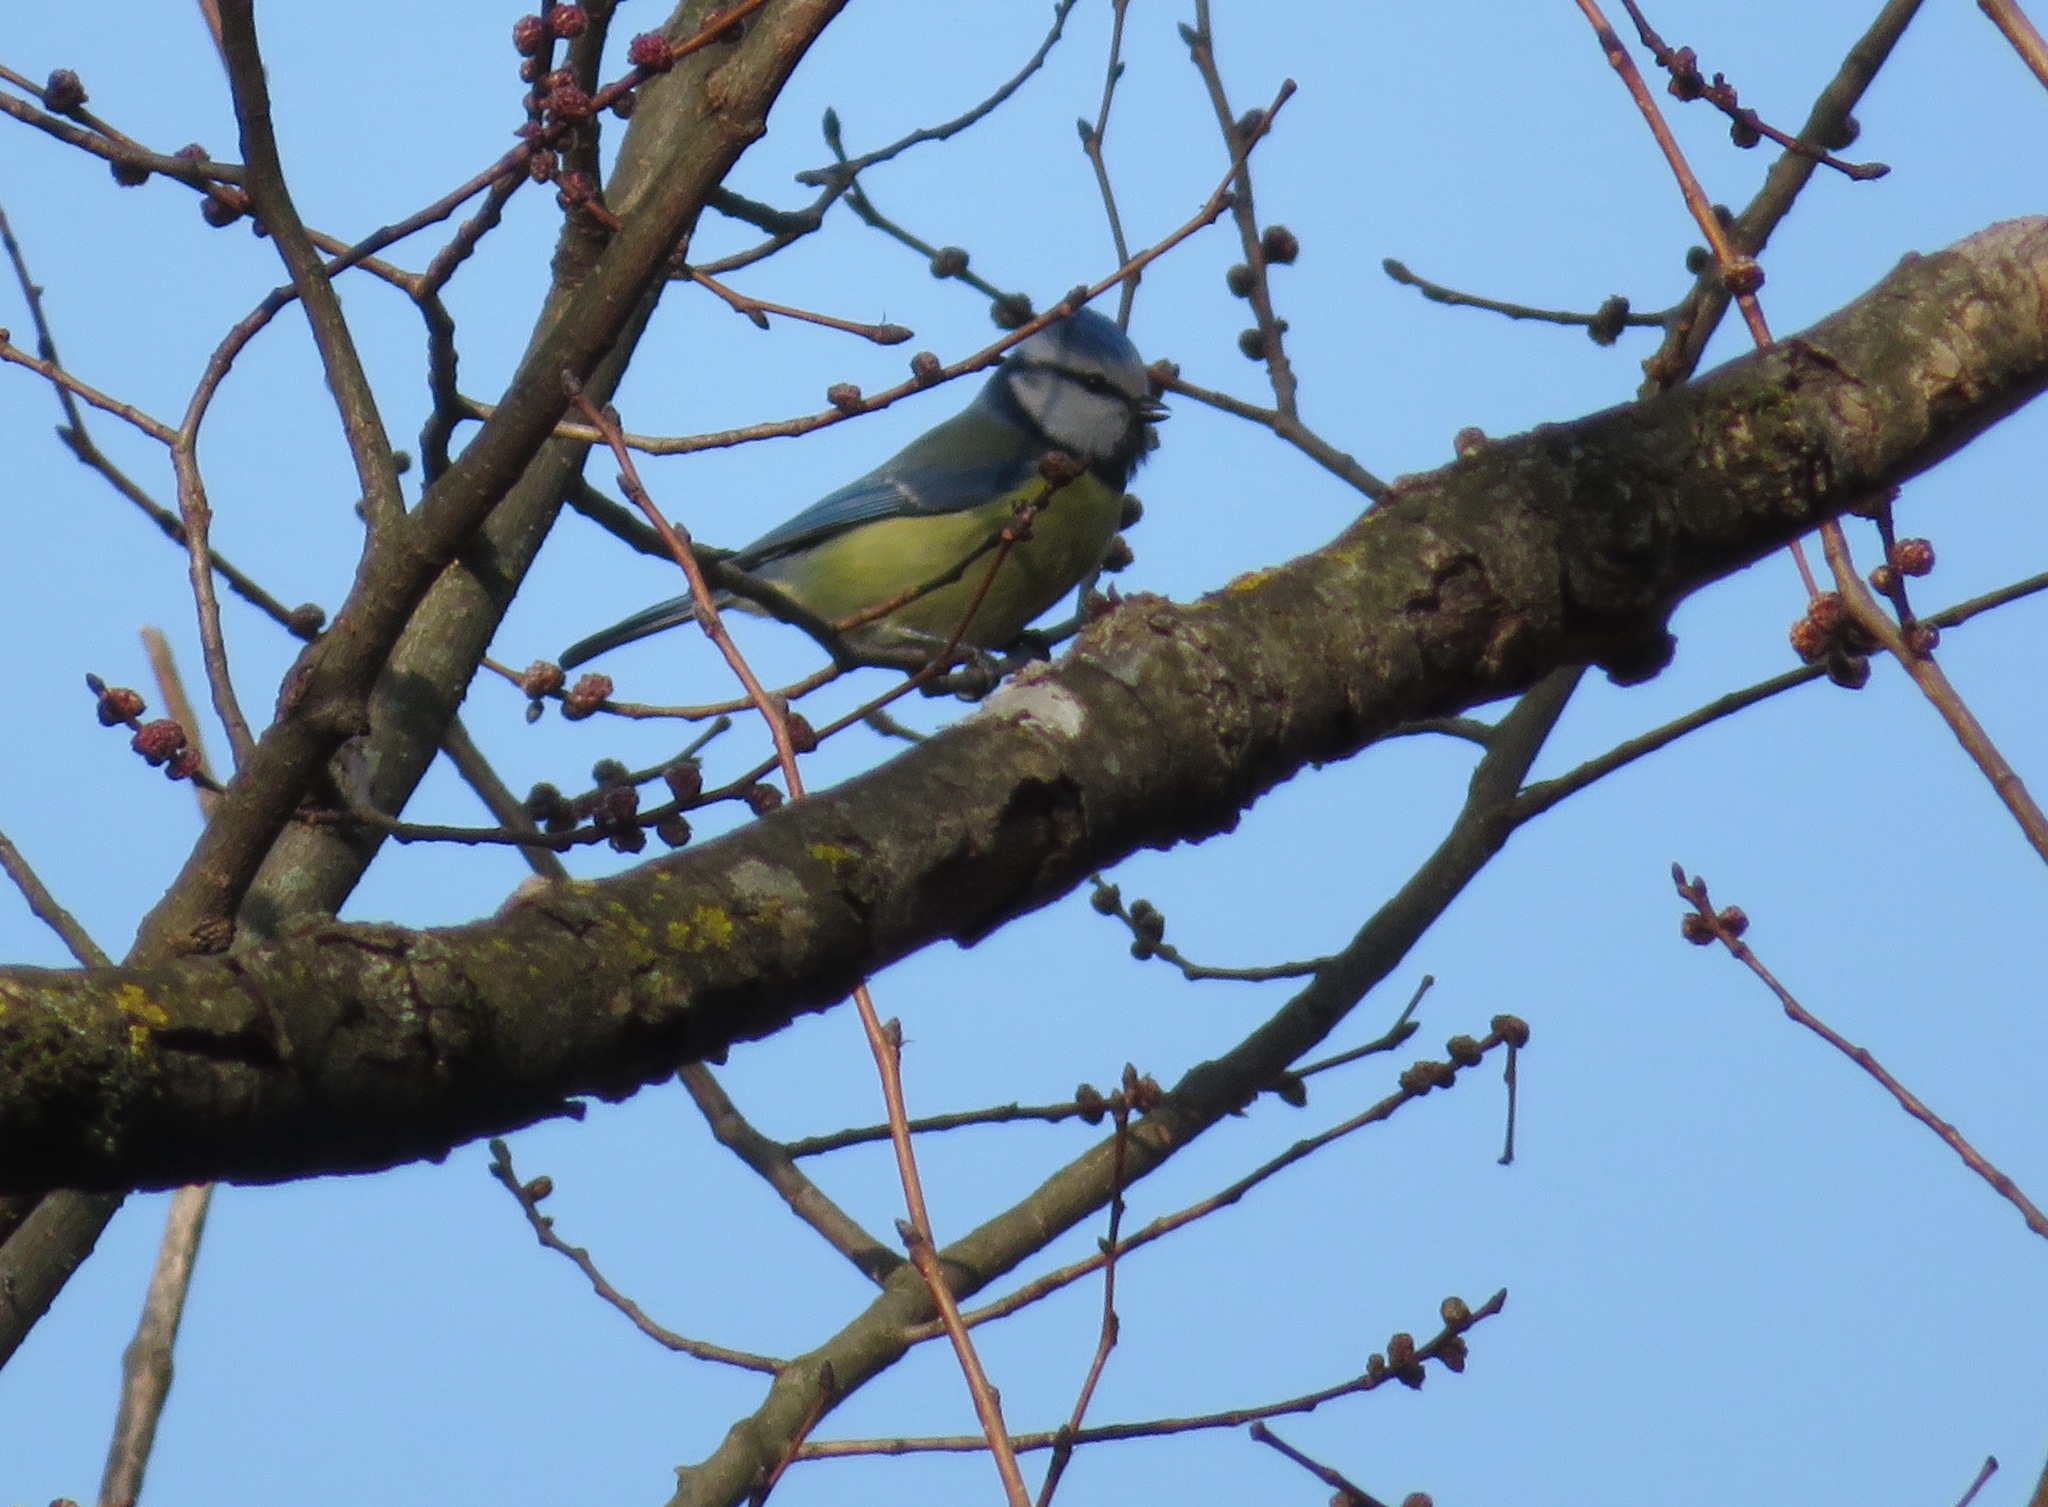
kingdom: Animalia
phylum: Chordata
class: Aves
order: Passeriformes
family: Paridae
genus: Cyanistes
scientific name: Cyanistes caeruleus
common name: Eurasian blue tit
